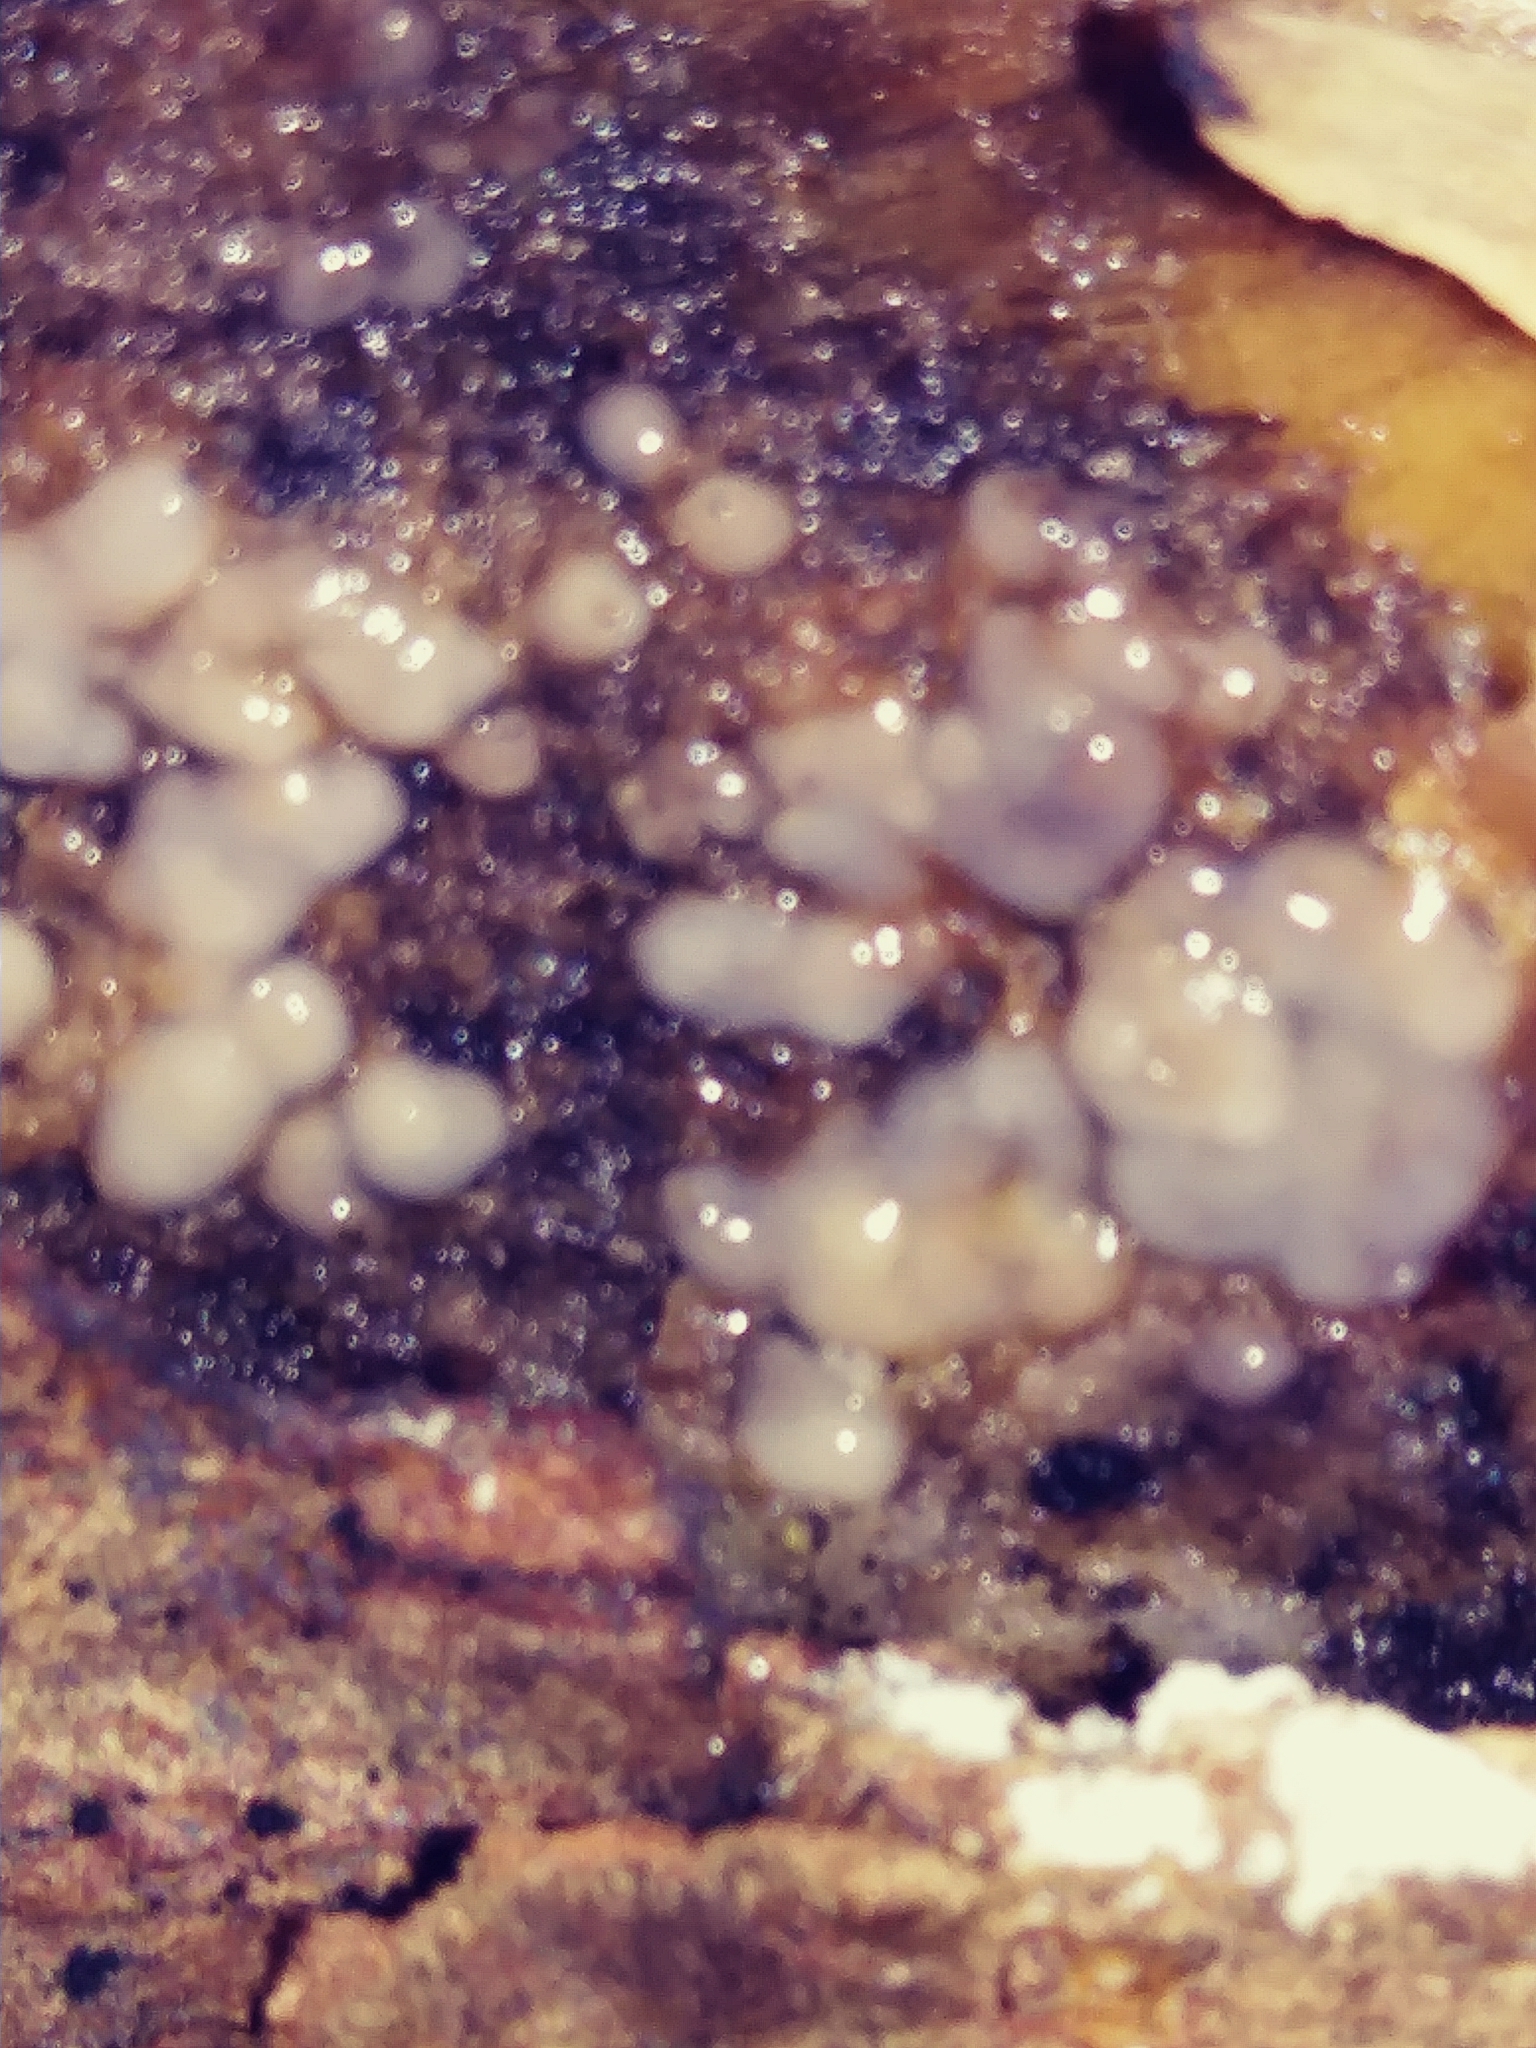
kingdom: Fungi
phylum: Basidiomycota
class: Atractiellomycetes
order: Atractiellales
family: Phleogenaceae
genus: Helicogloea
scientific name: Helicogloea compressa
